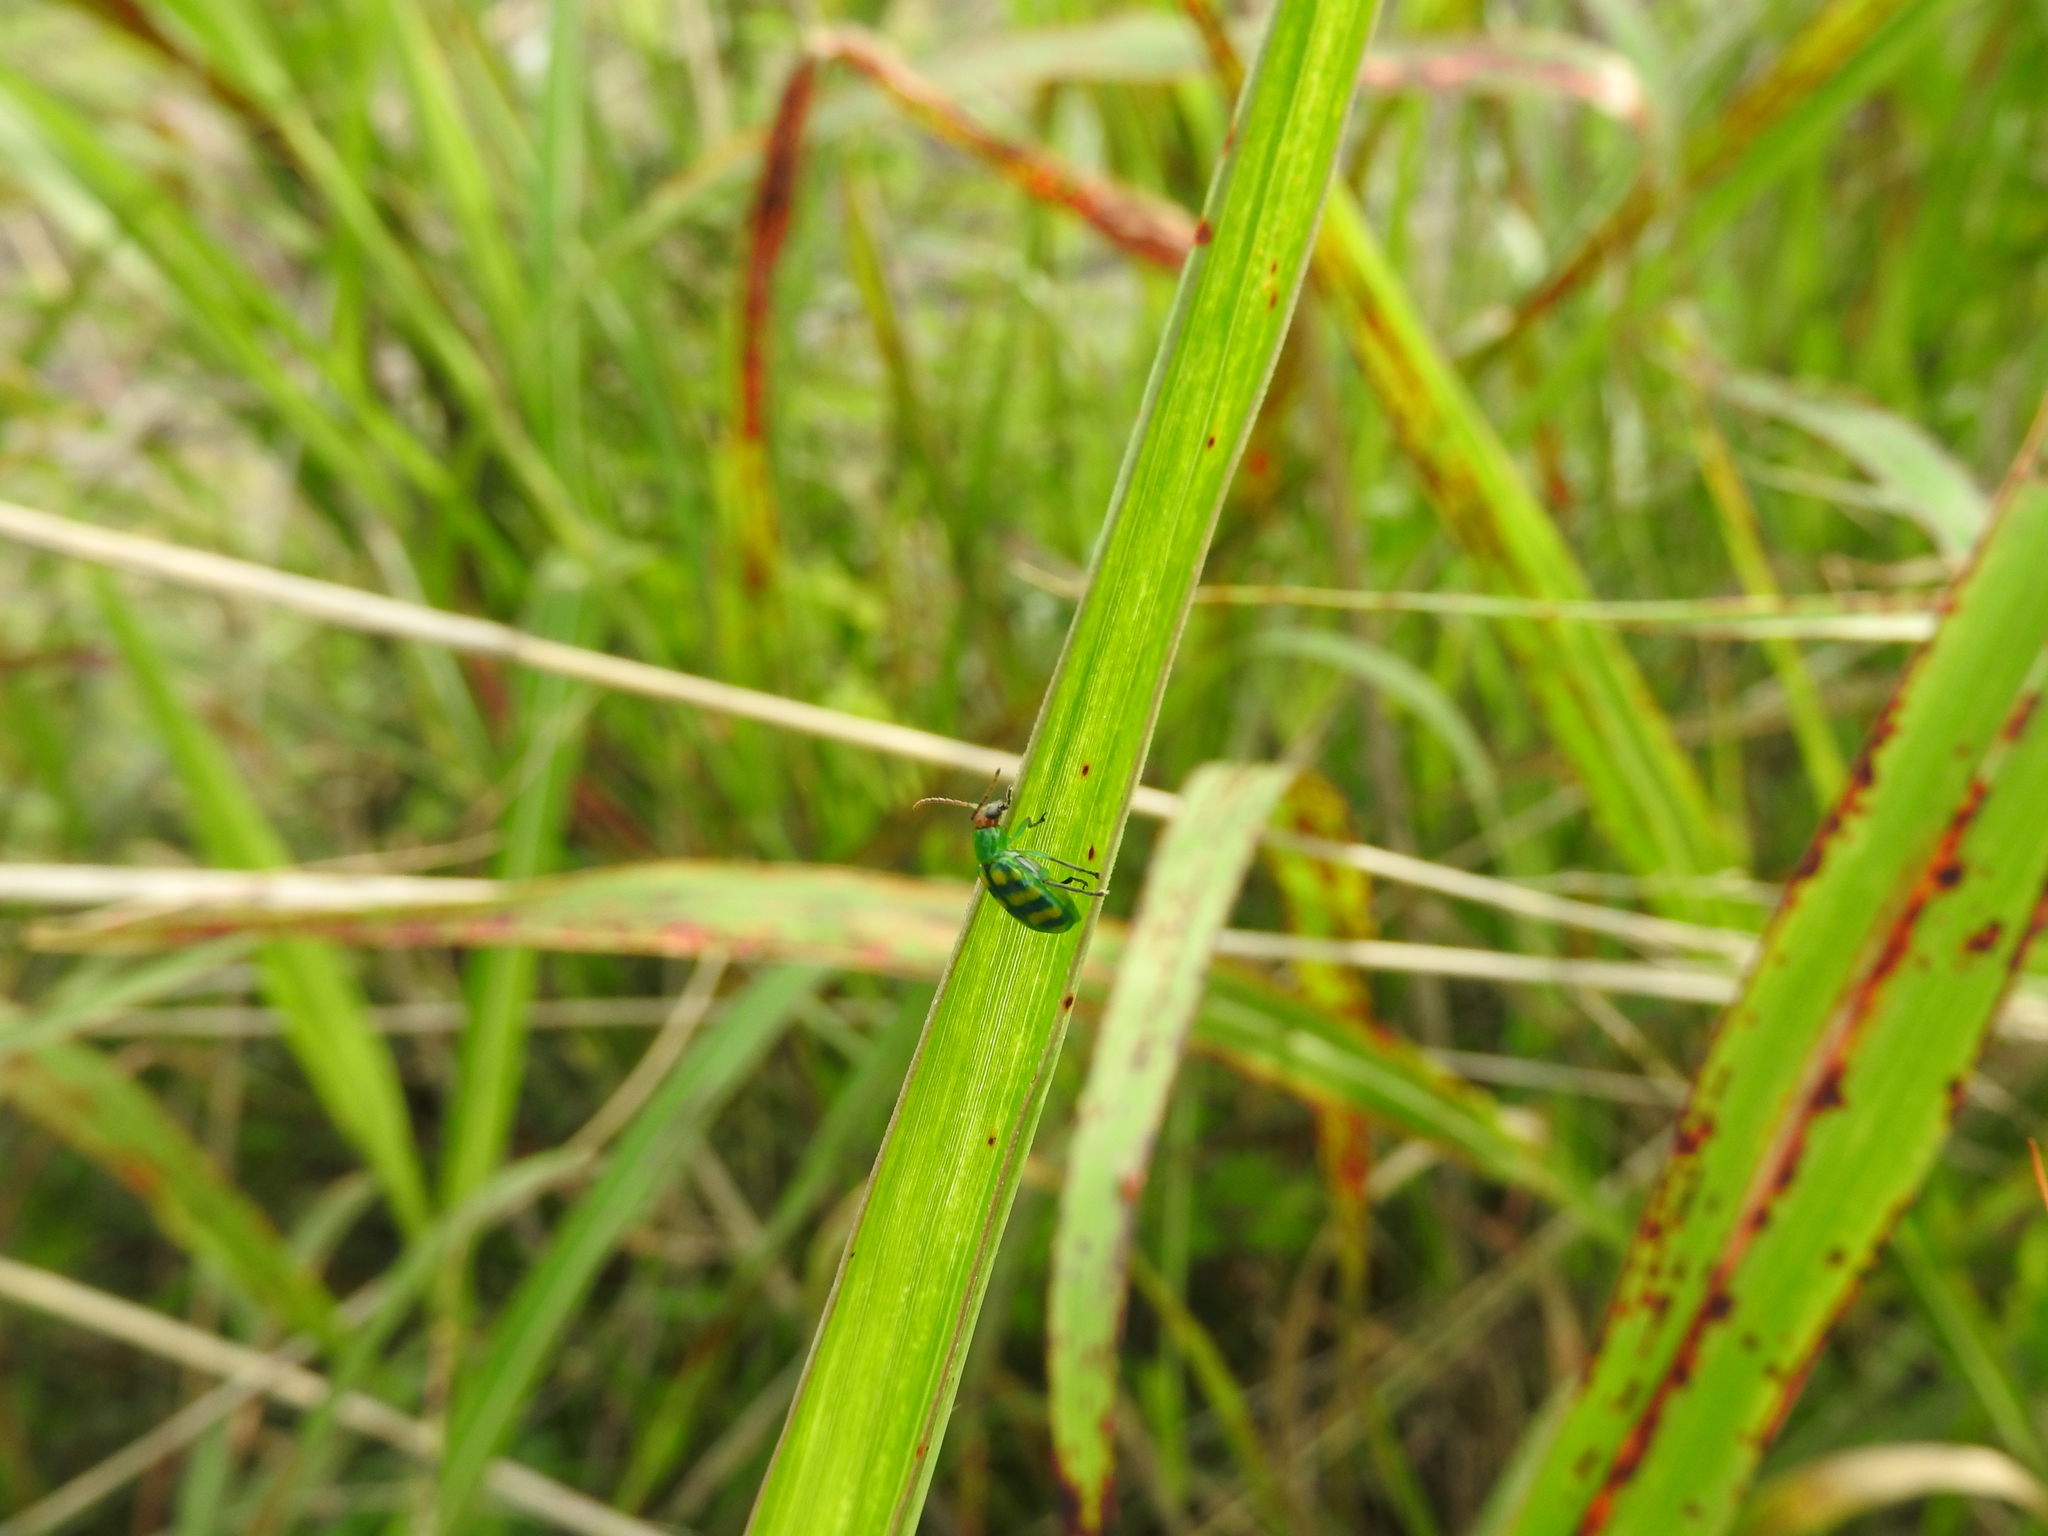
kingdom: Animalia
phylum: Arthropoda
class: Insecta
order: Coleoptera
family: Chrysomelidae
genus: Diabrotica
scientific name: Diabrotica balteata
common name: Leaf beetle
